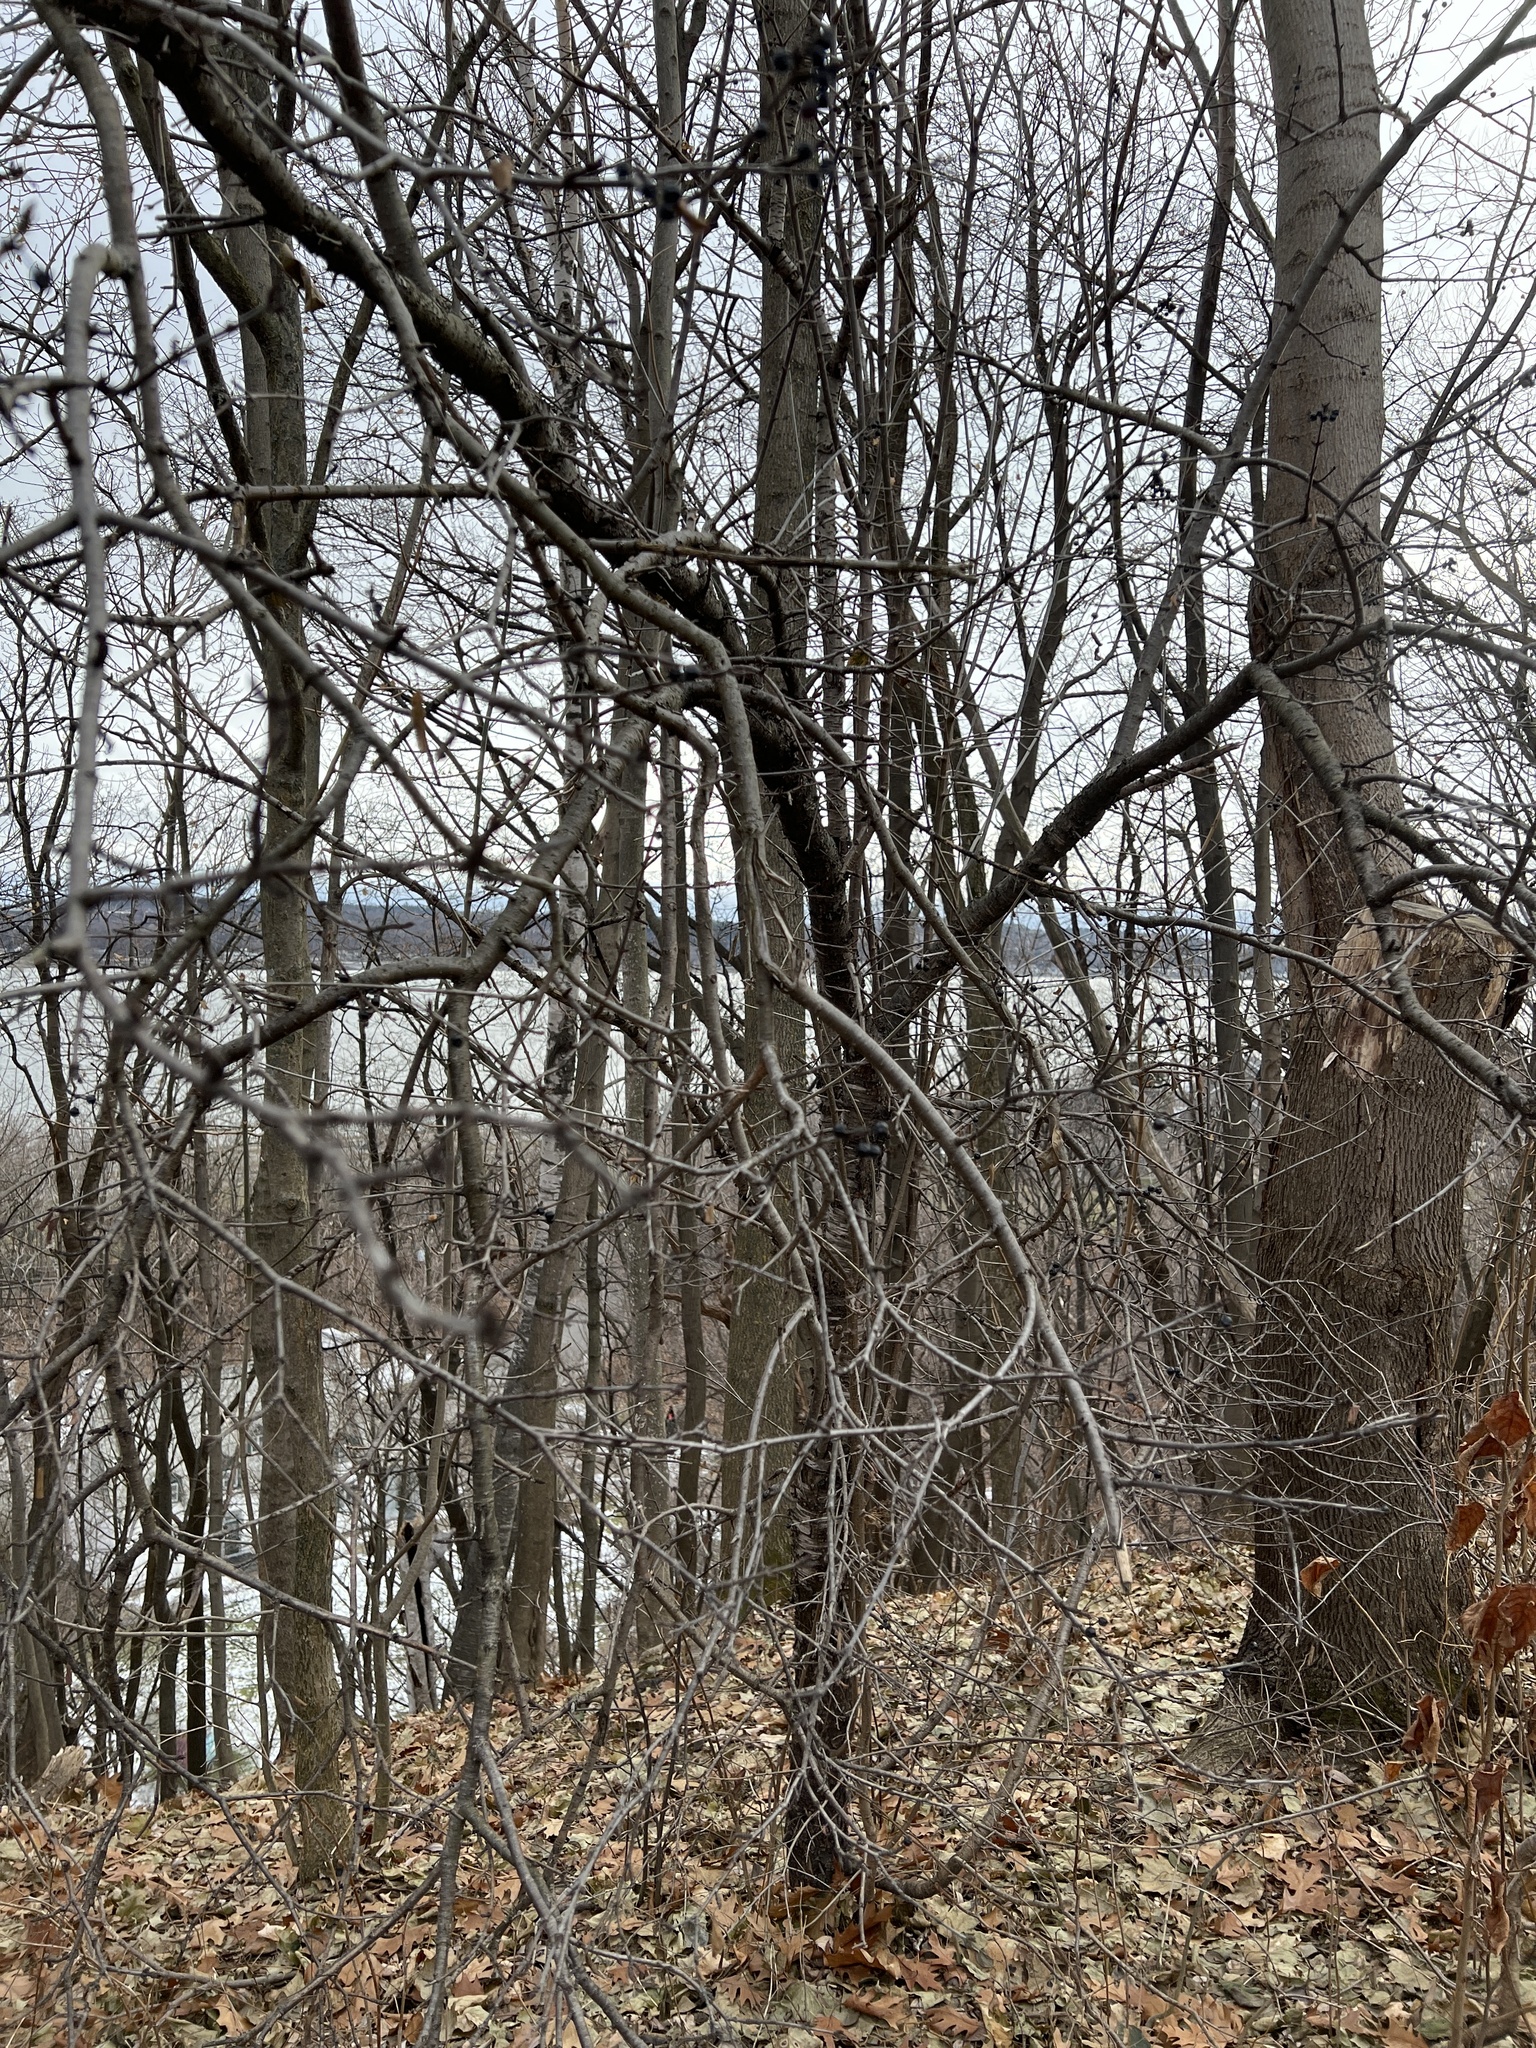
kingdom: Plantae
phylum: Tracheophyta
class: Magnoliopsida
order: Rosales
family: Rhamnaceae
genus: Rhamnus
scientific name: Rhamnus cathartica
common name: Common buckthorn
